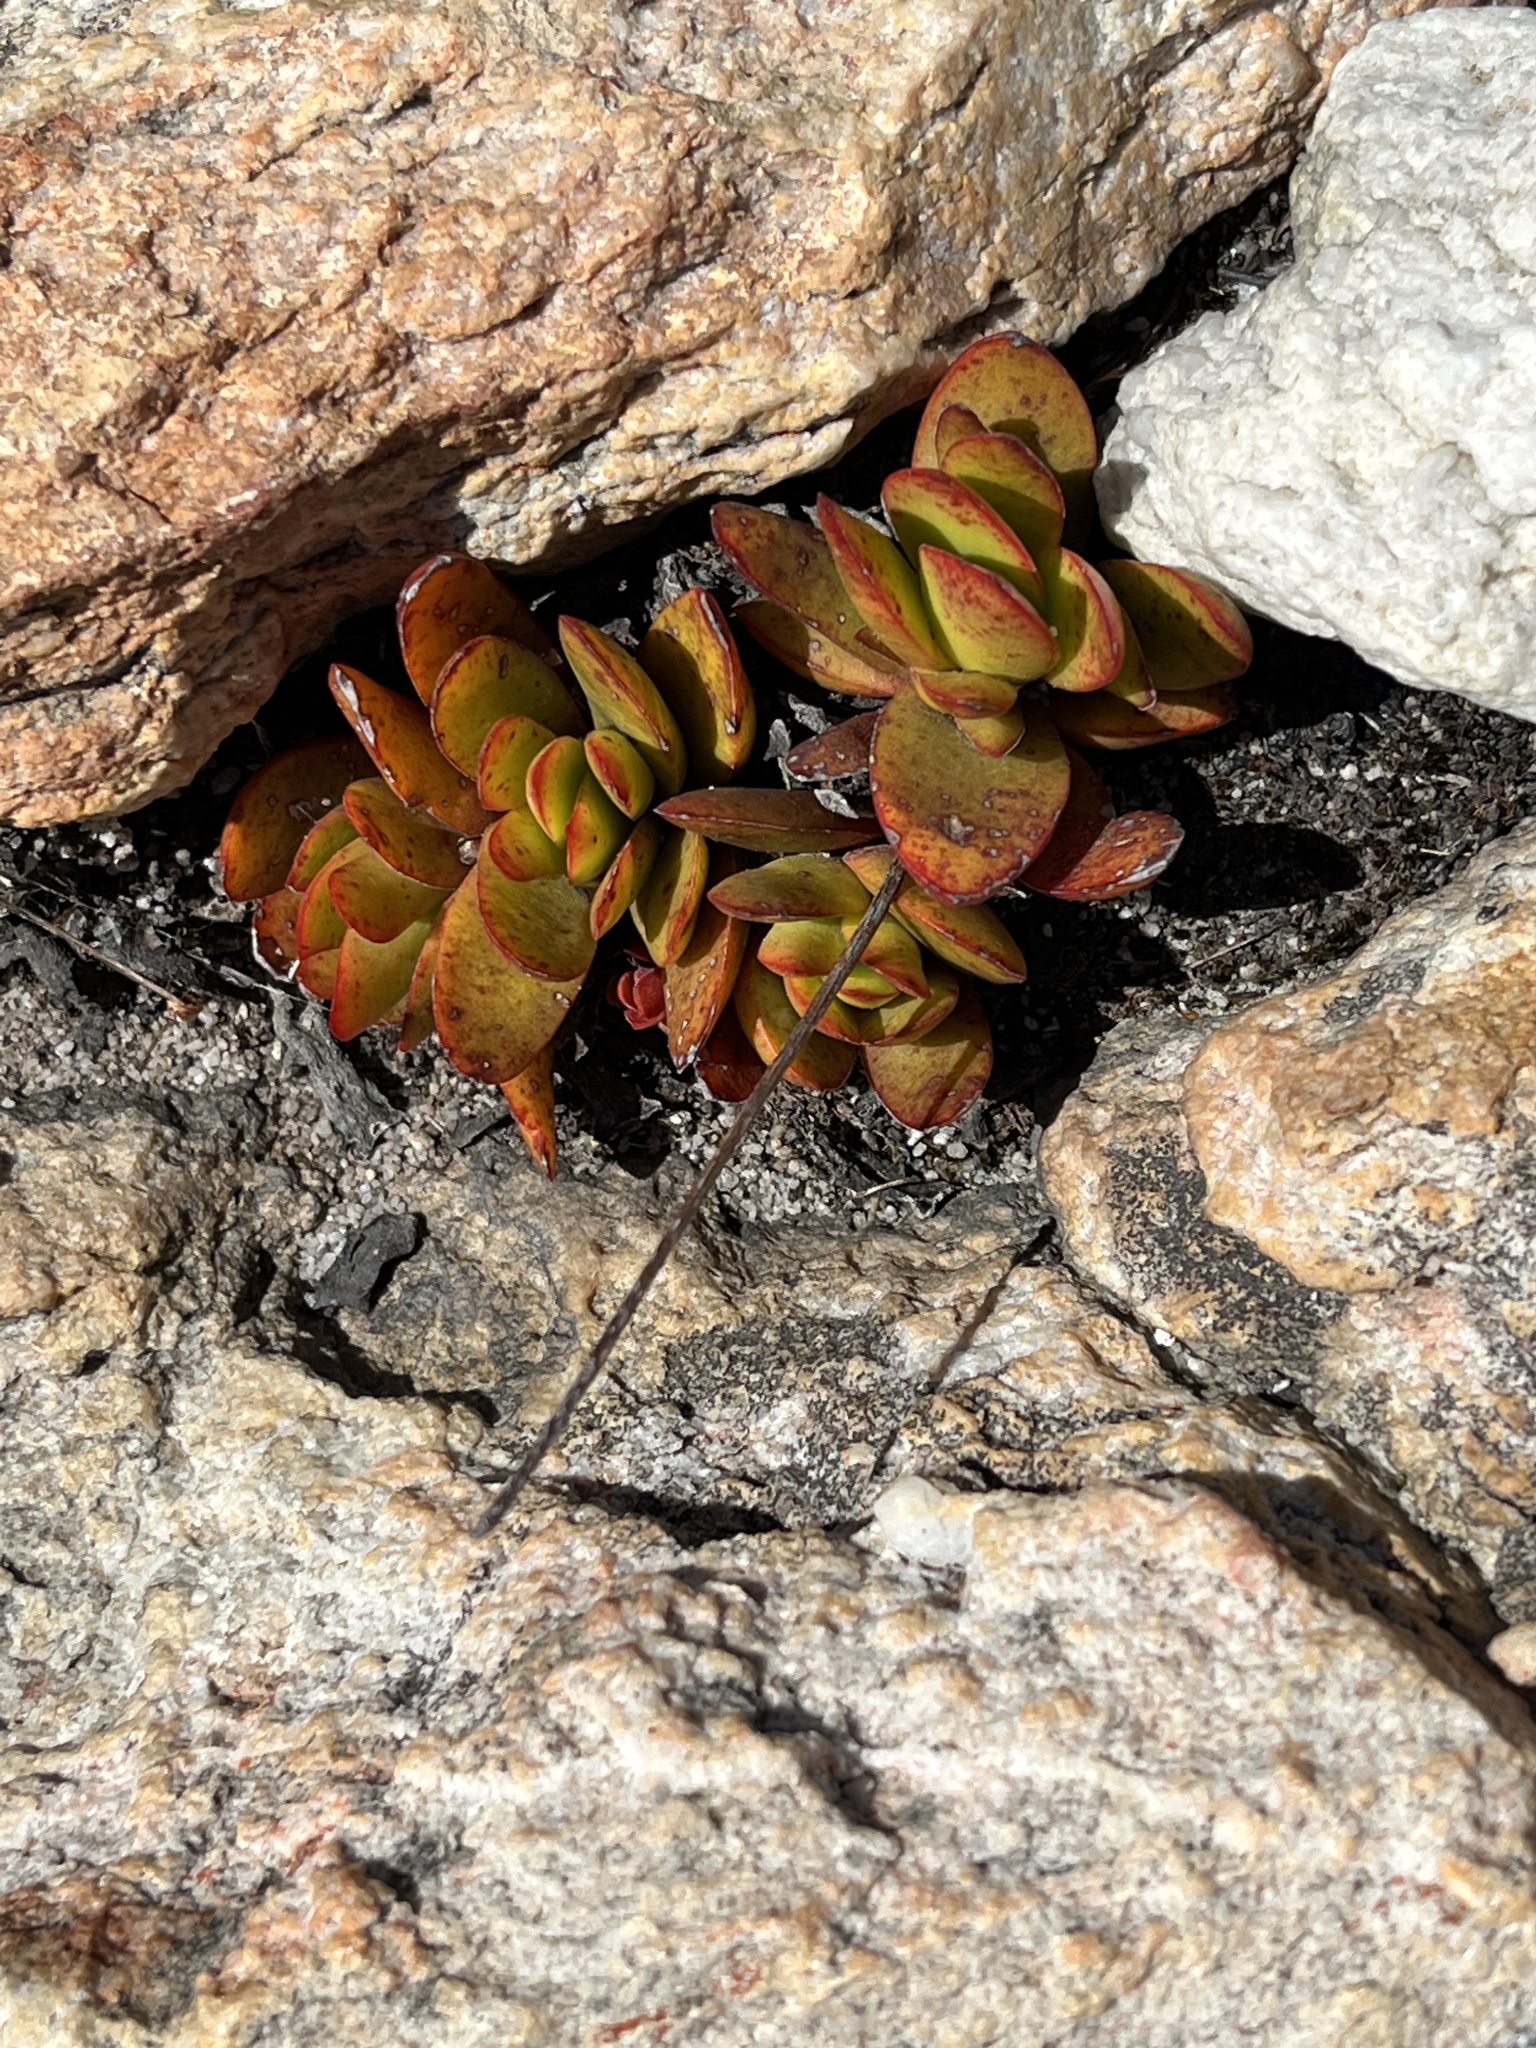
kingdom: Plantae
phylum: Tracheophyta
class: Magnoliopsida
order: Saxifragales
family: Crassulaceae
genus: Crassula
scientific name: Crassula nudicaulis
